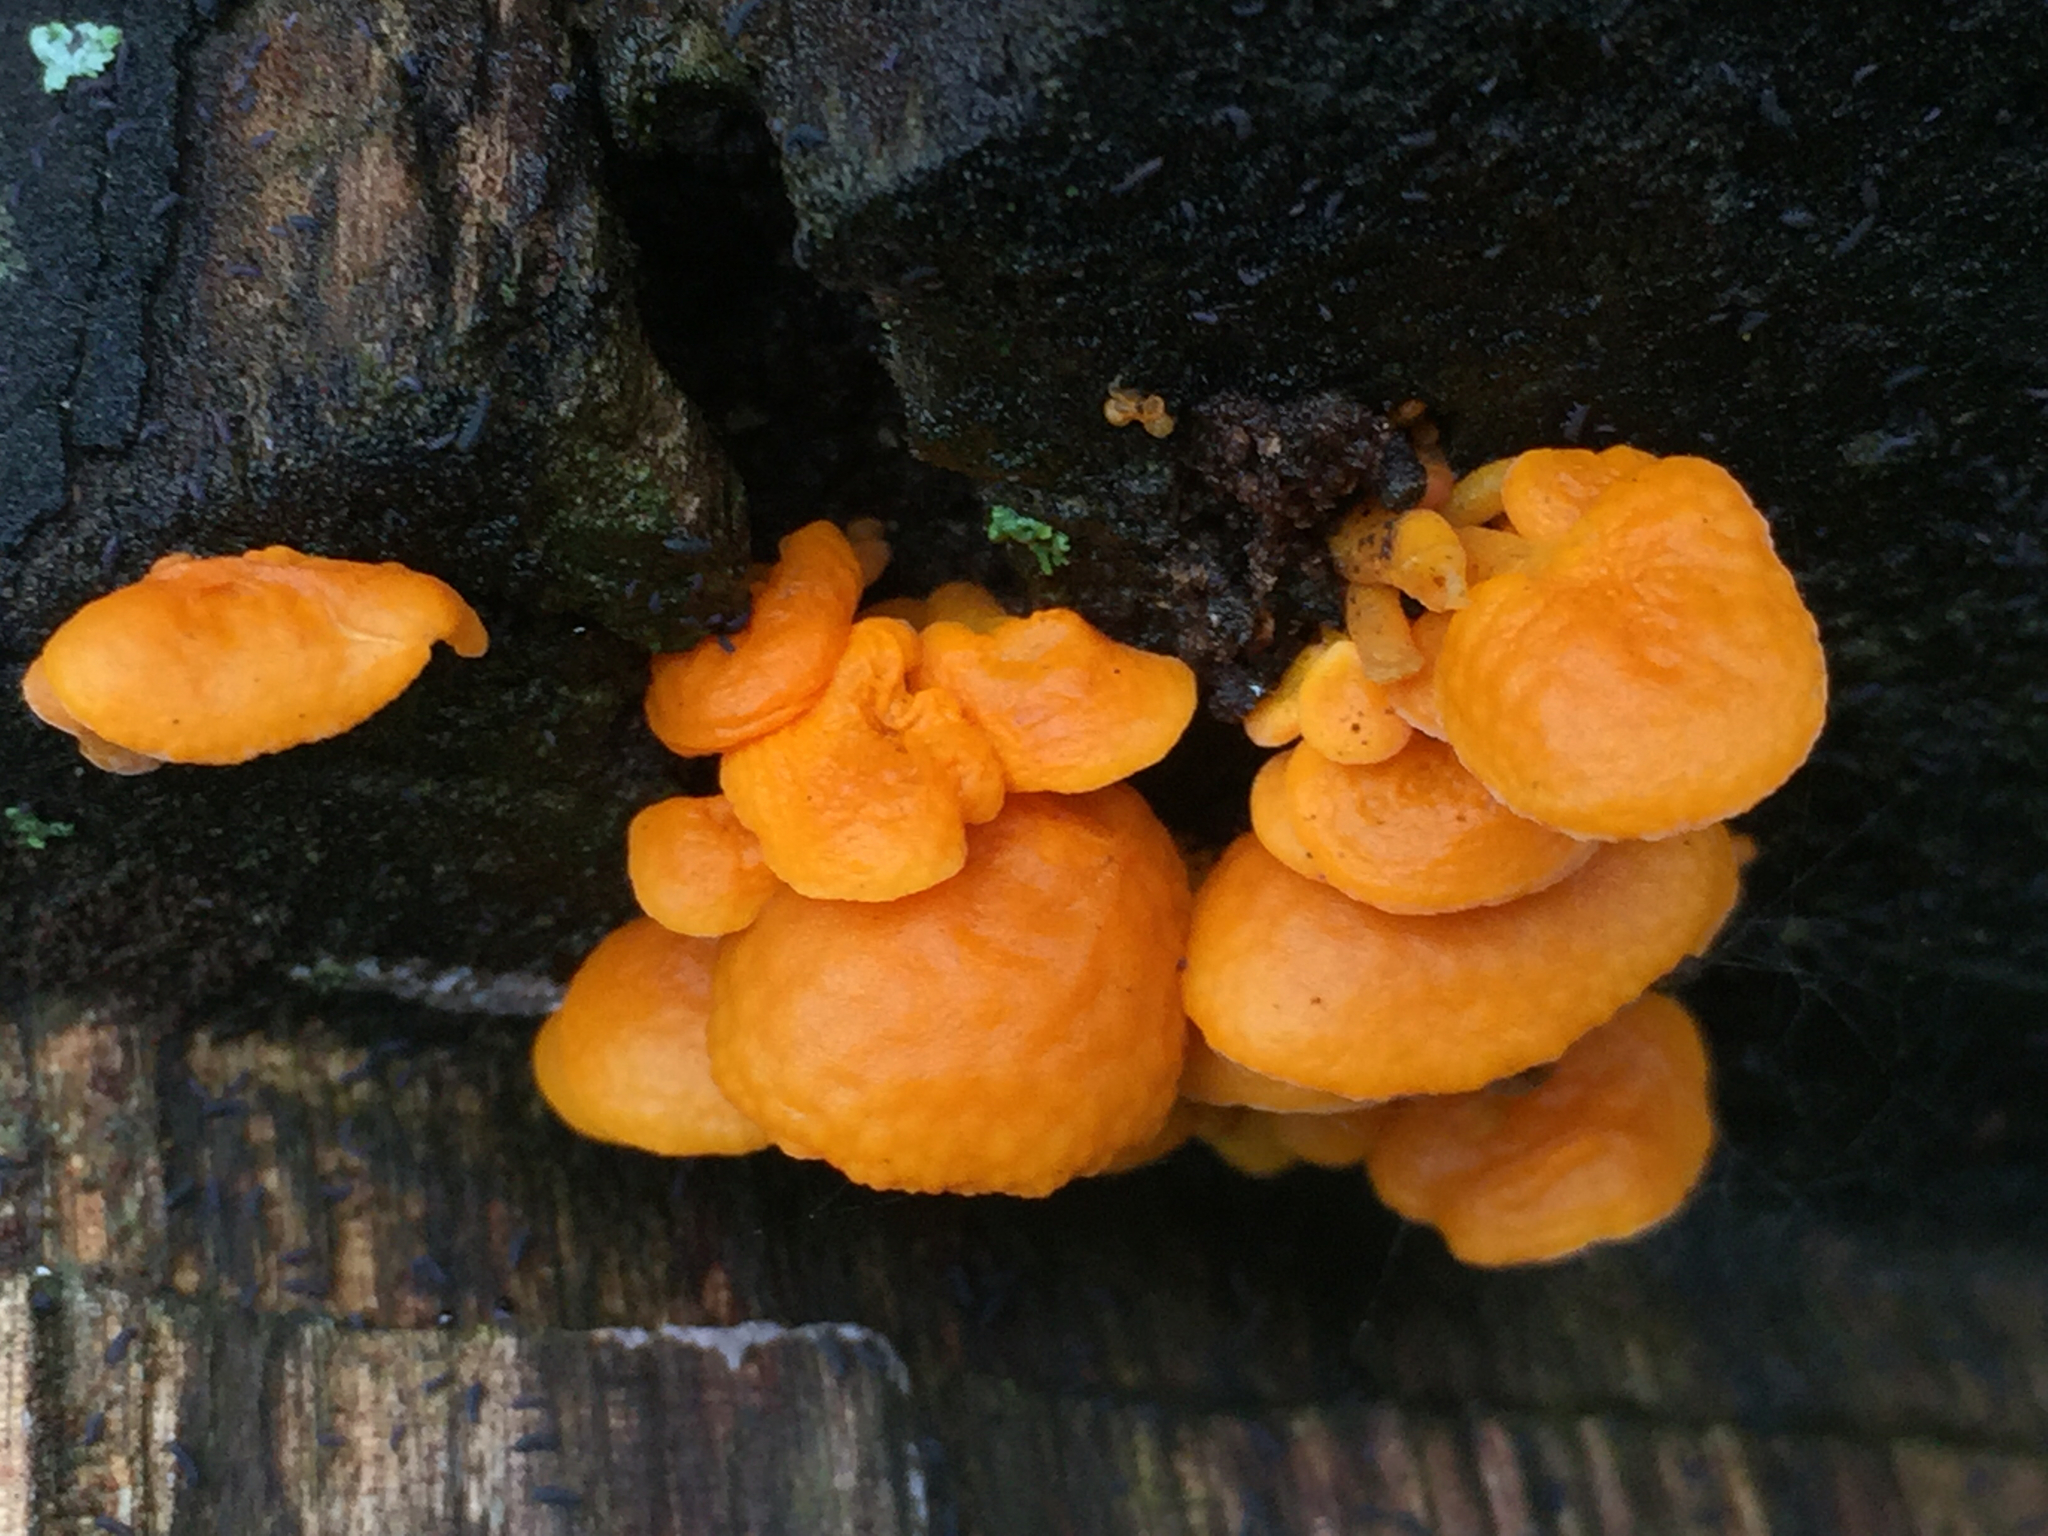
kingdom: Fungi
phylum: Basidiomycota
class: Agaricomycetes
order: Agaricales
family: Mycenaceae
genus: Favolaschia
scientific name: Favolaschia claudopus
